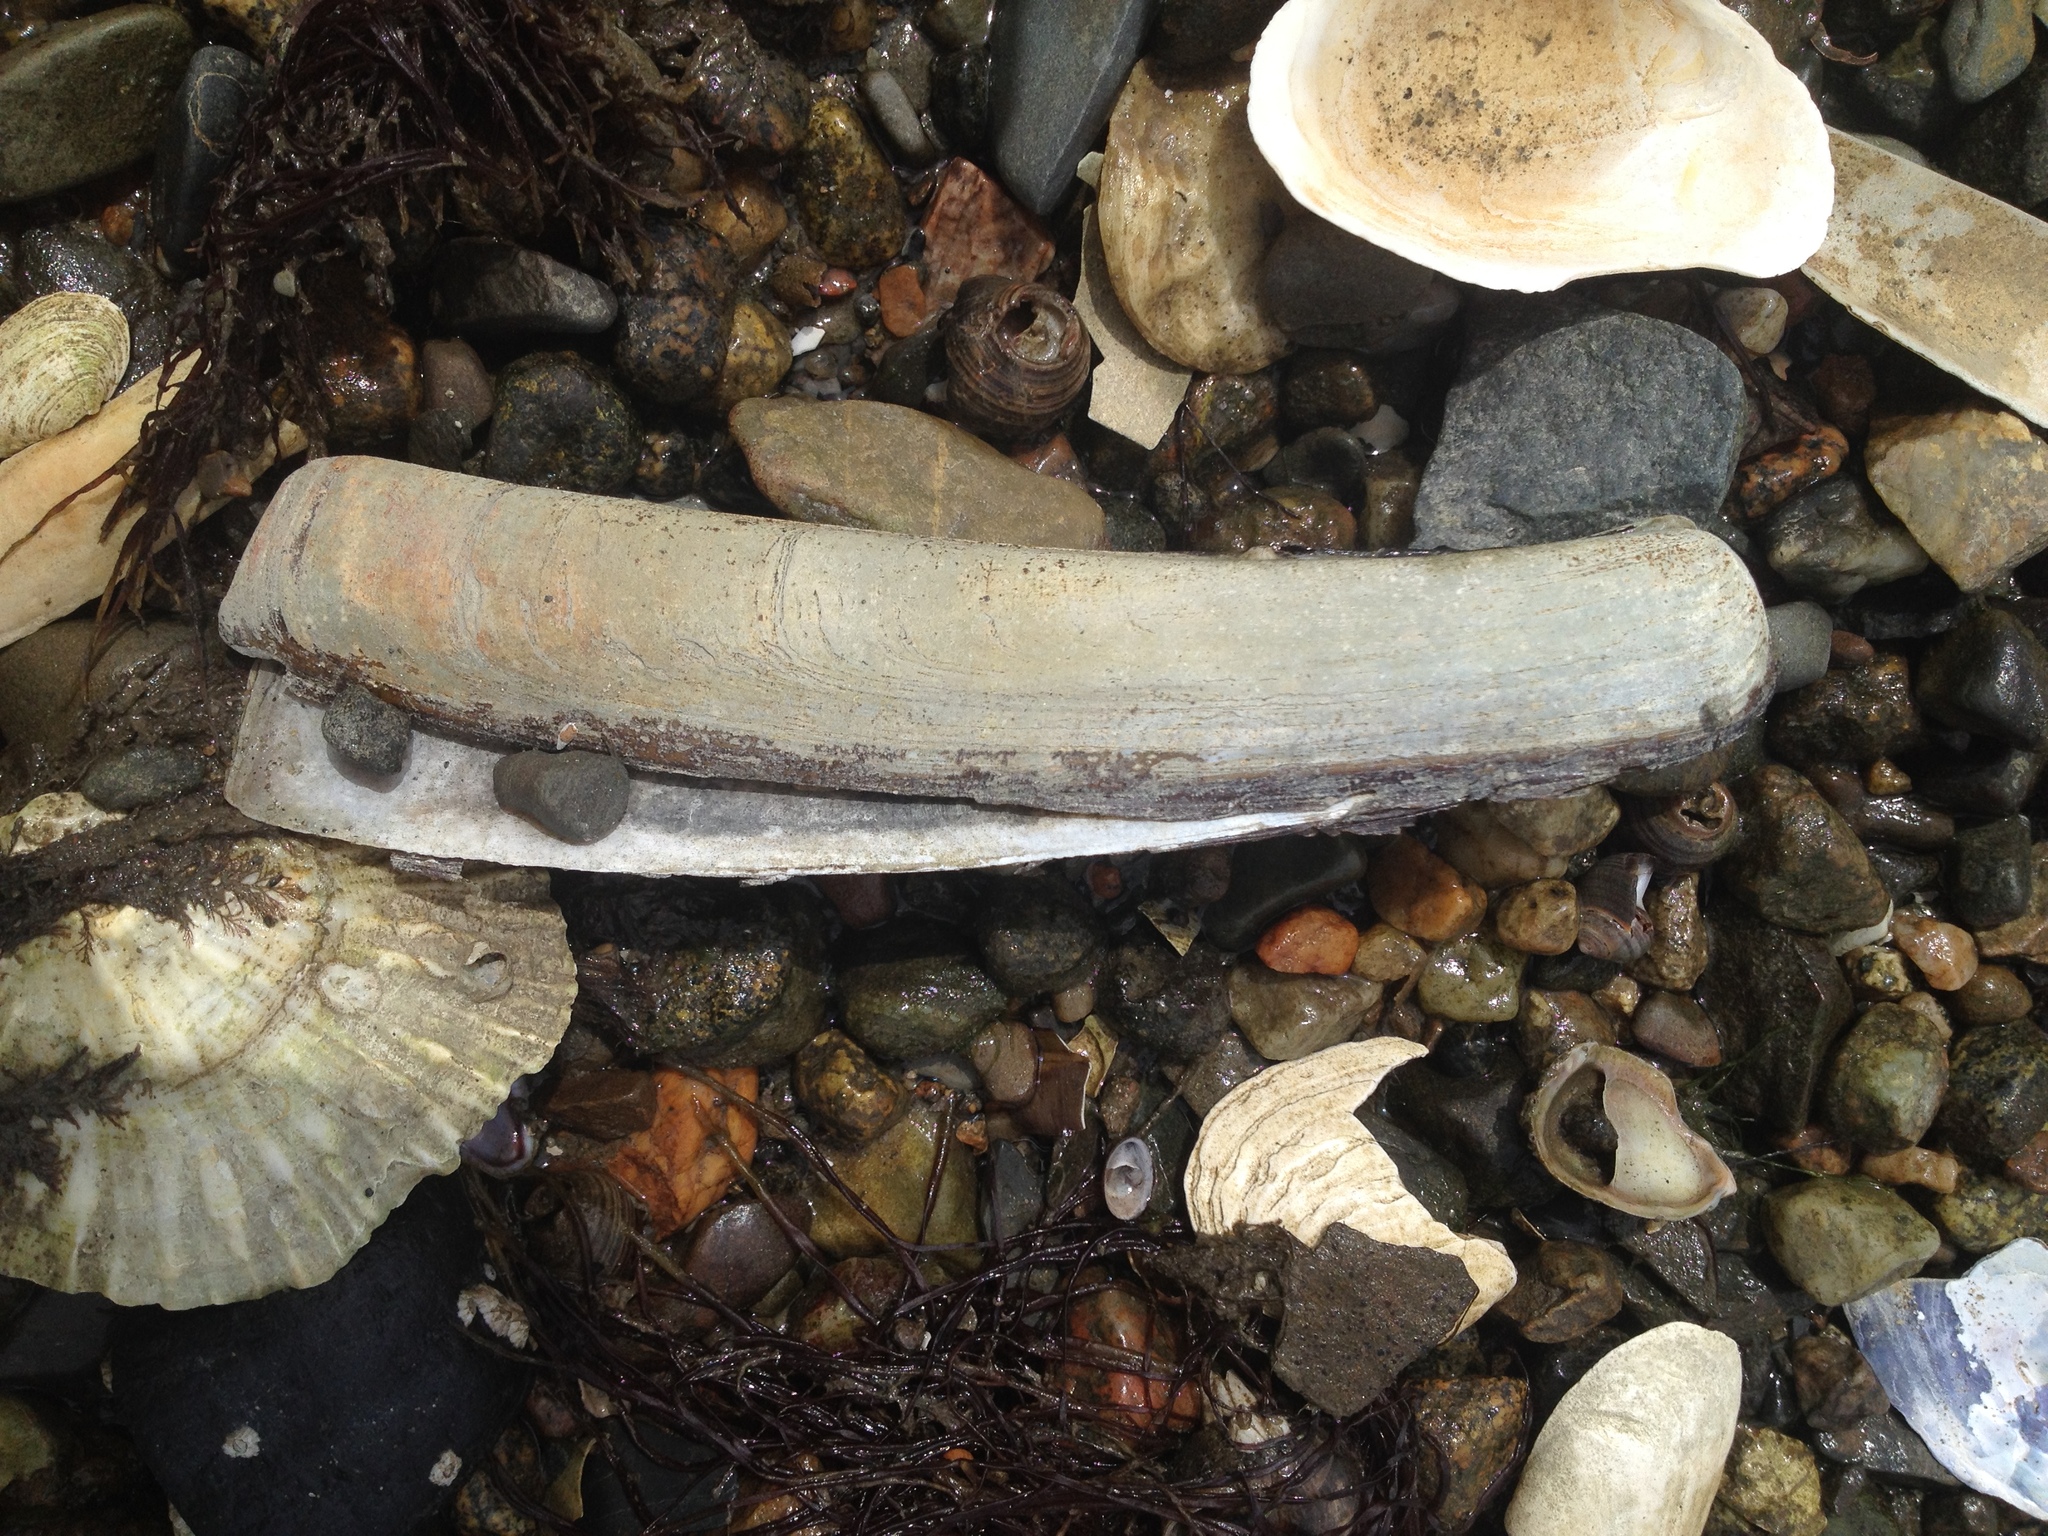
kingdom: Animalia
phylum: Mollusca
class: Bivalvia
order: Adapedonta
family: Pharidae
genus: Ensis
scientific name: Ensis leei
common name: American jack knife clam
